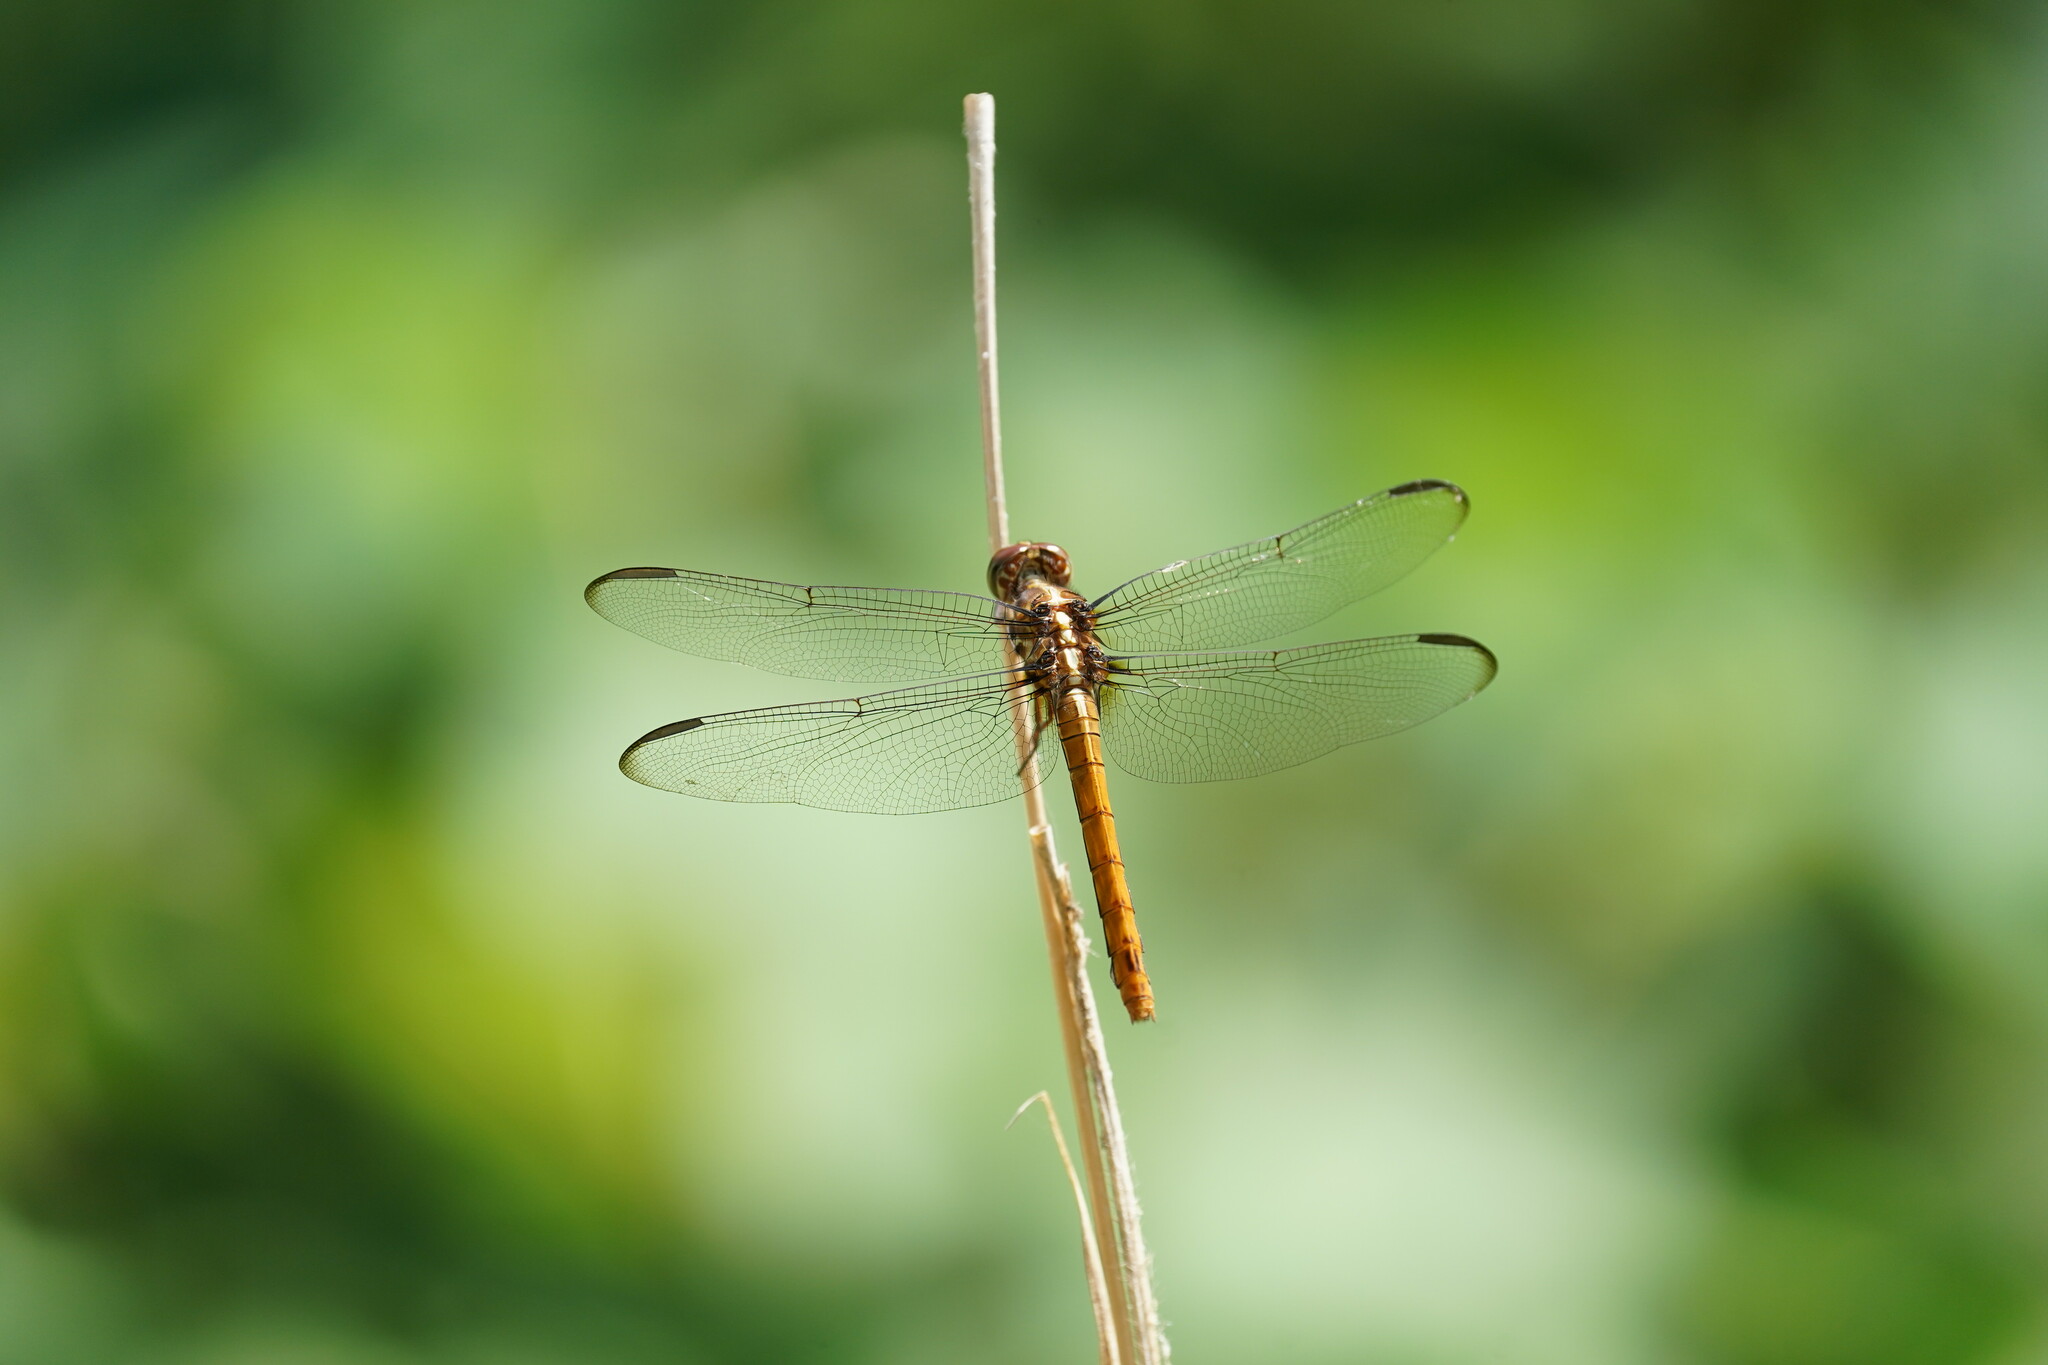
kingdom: Animalia
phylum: Arthropoda
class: Insecta
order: Odonata
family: Libellulidae
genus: Orthemis
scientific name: Orthemis ferruginea
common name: Roseate skimmer
